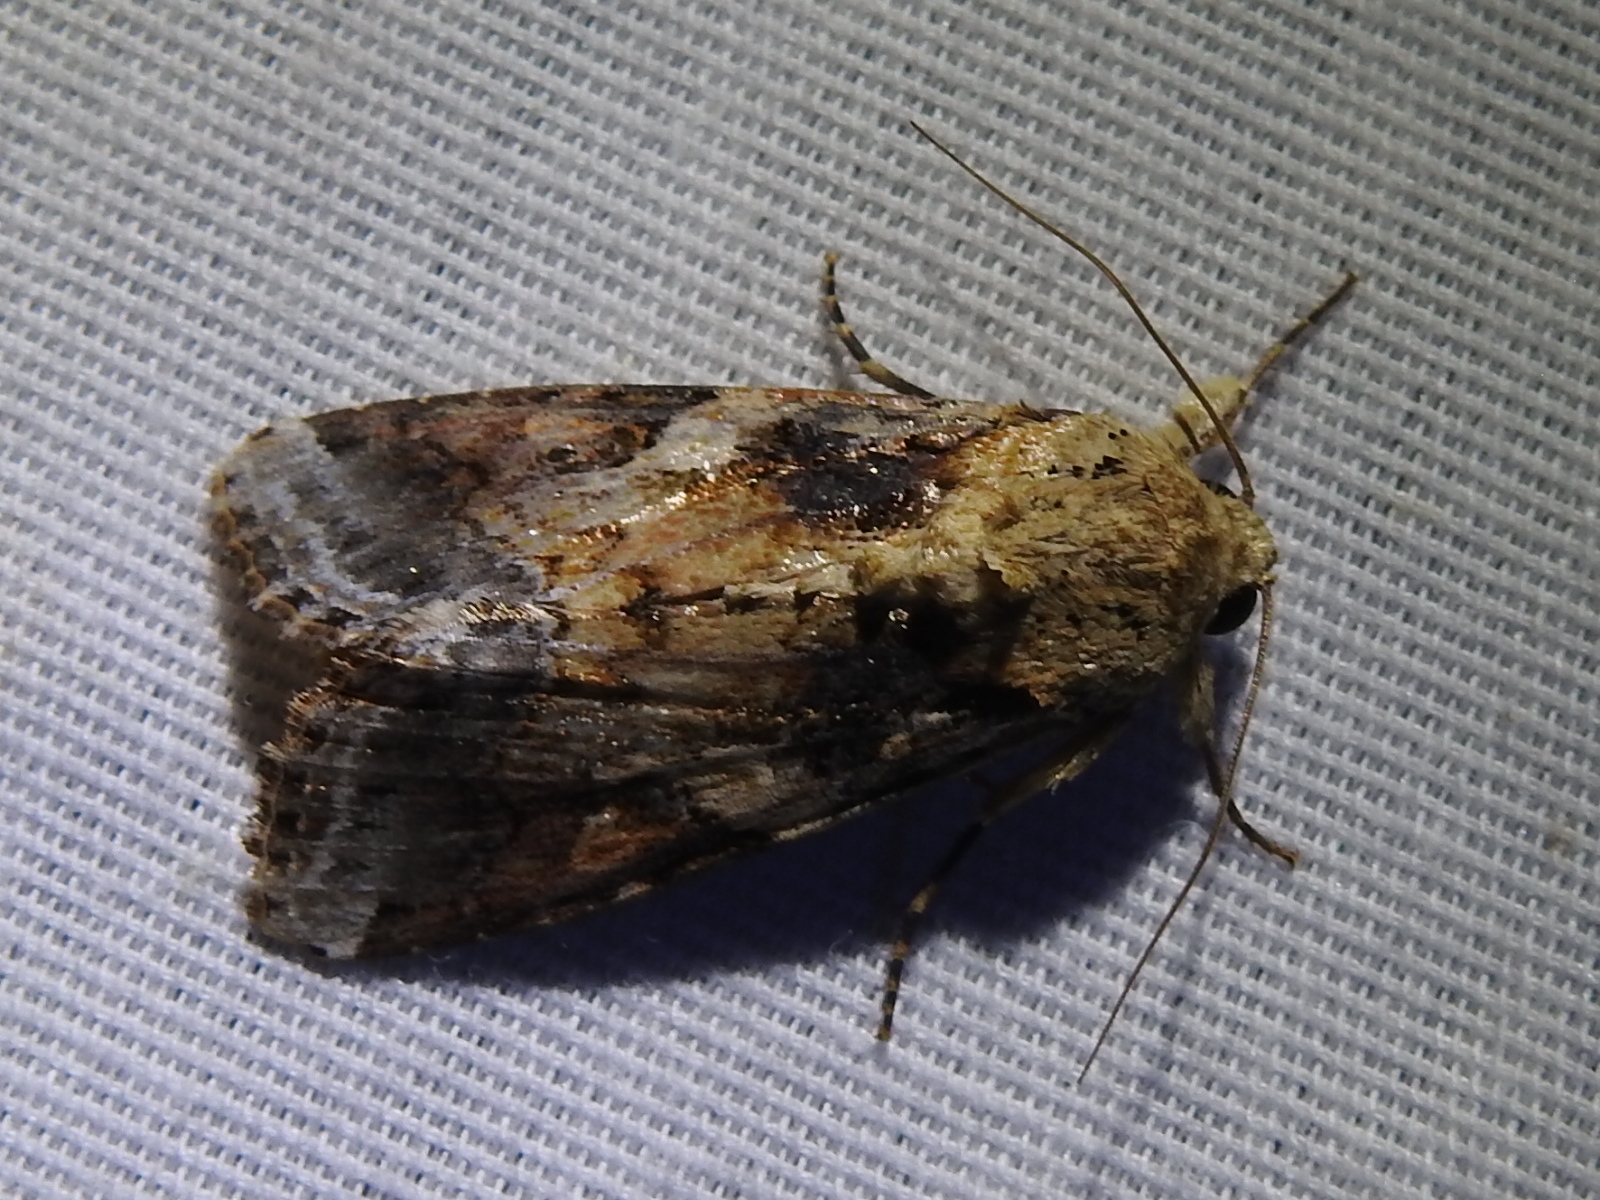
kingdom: Animalia
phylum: Arthropoda
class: Insecta
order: Lepidoptera
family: Noctuidae
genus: Spodoptera
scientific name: Spodoptera latifascia
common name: Velvet armyworm moth
